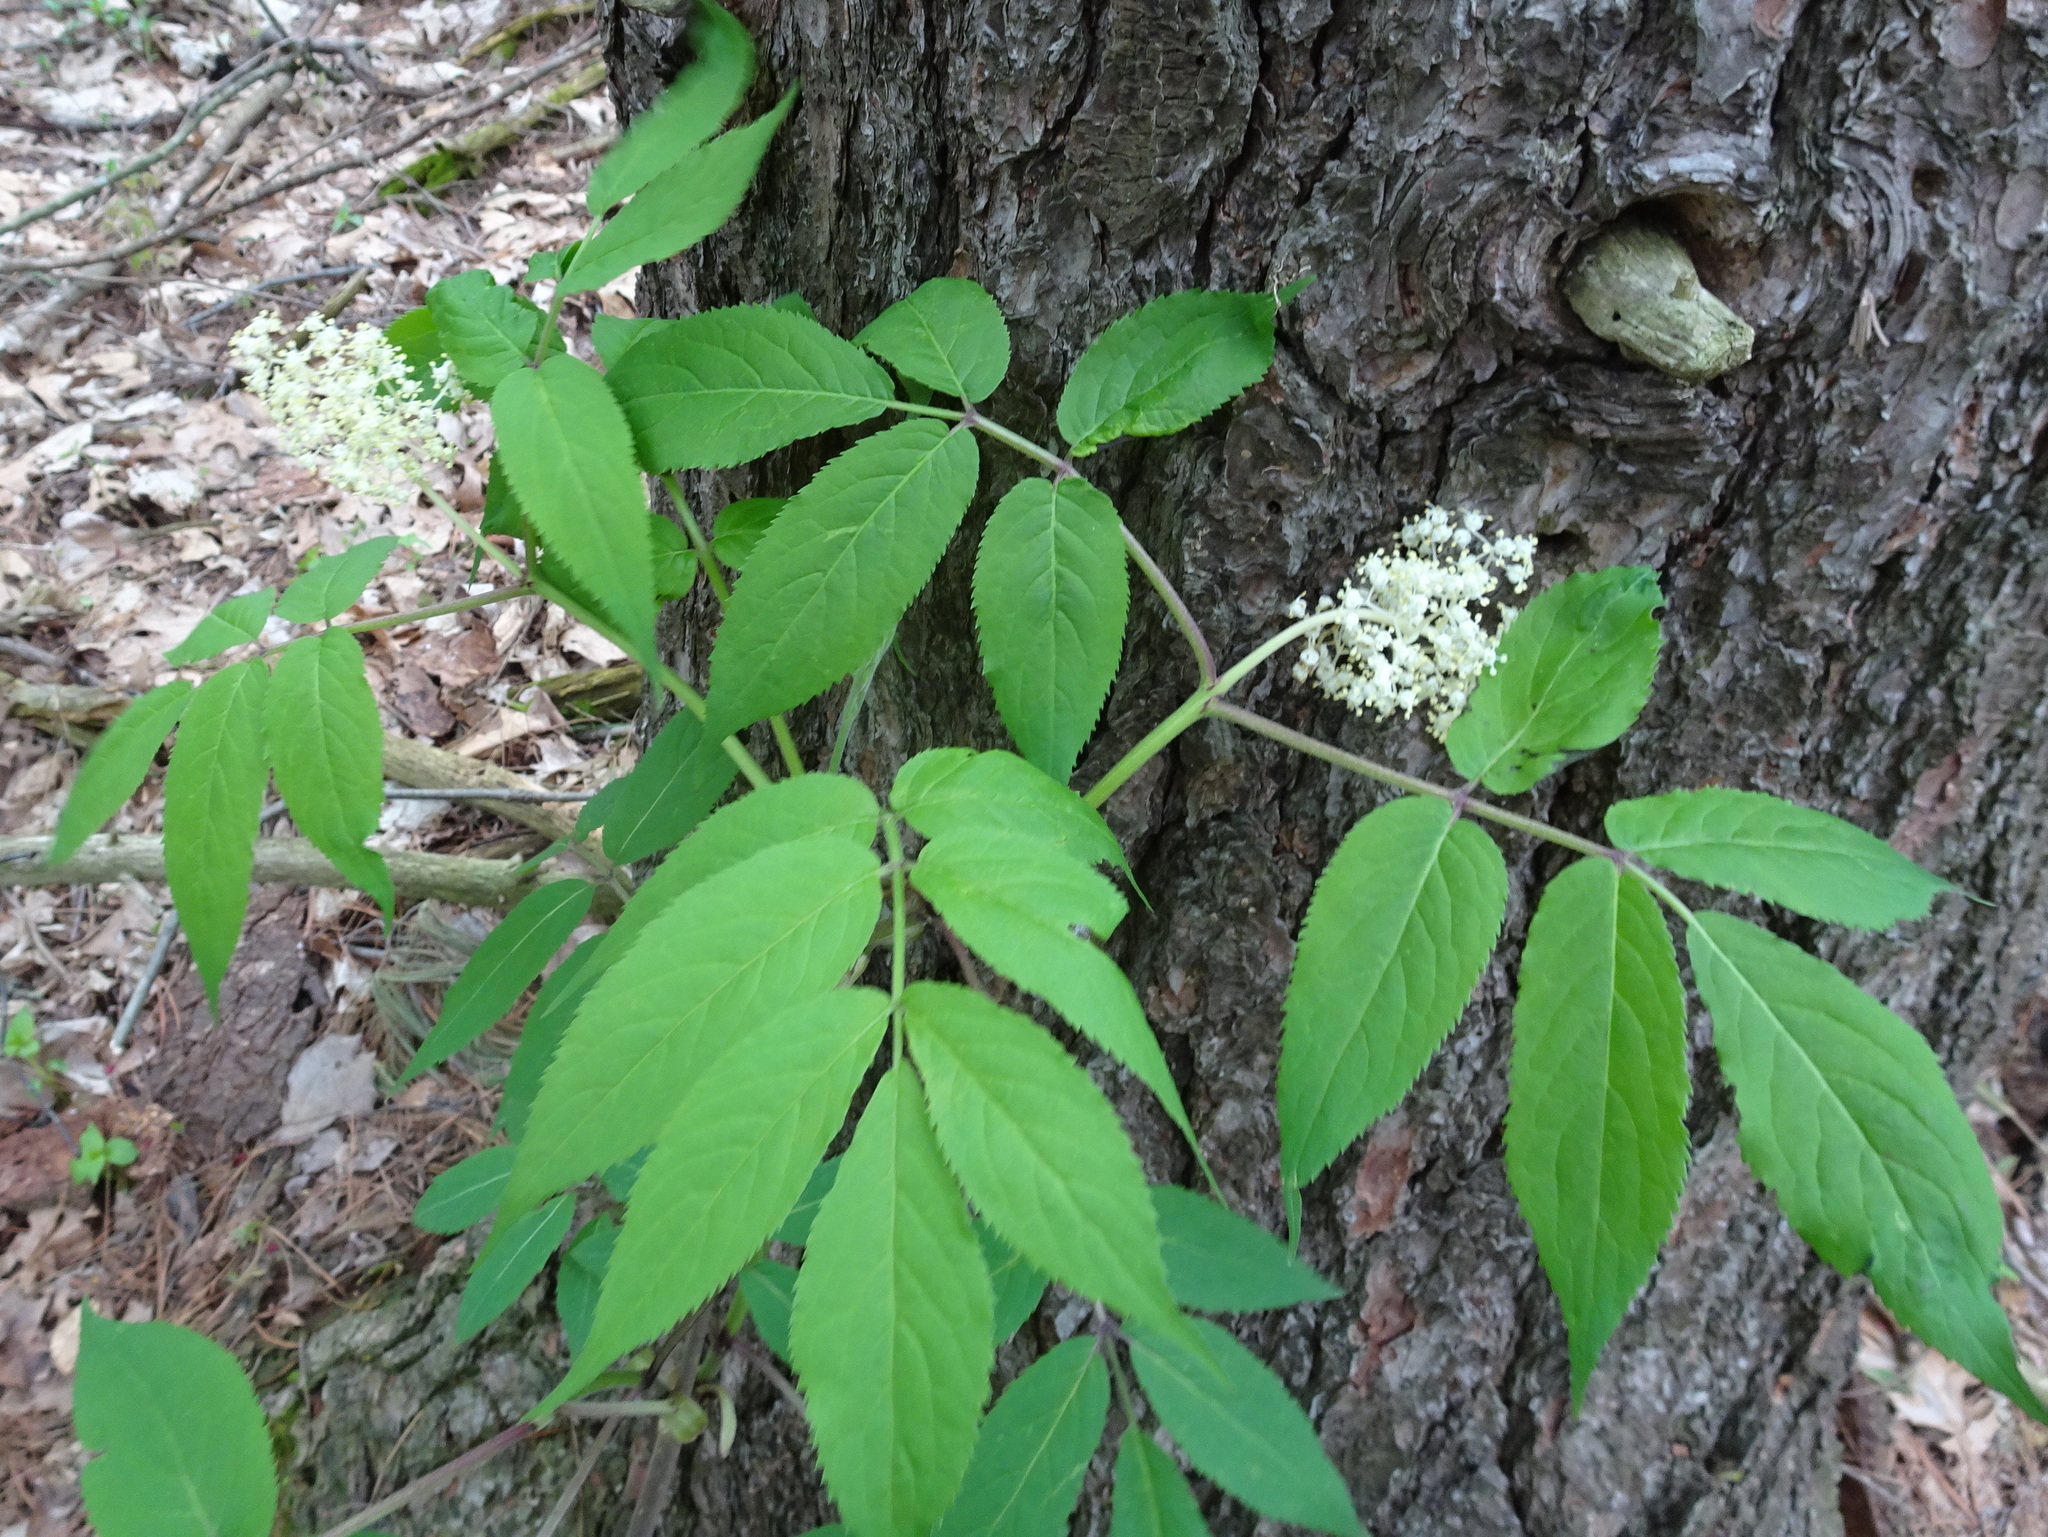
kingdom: Plantae
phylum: Tracheophyta
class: Magnoliopsida
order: Dipsacales
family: Viburnaceae
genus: Sambucus
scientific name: Sambucus racemosa
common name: Red-berried elder
